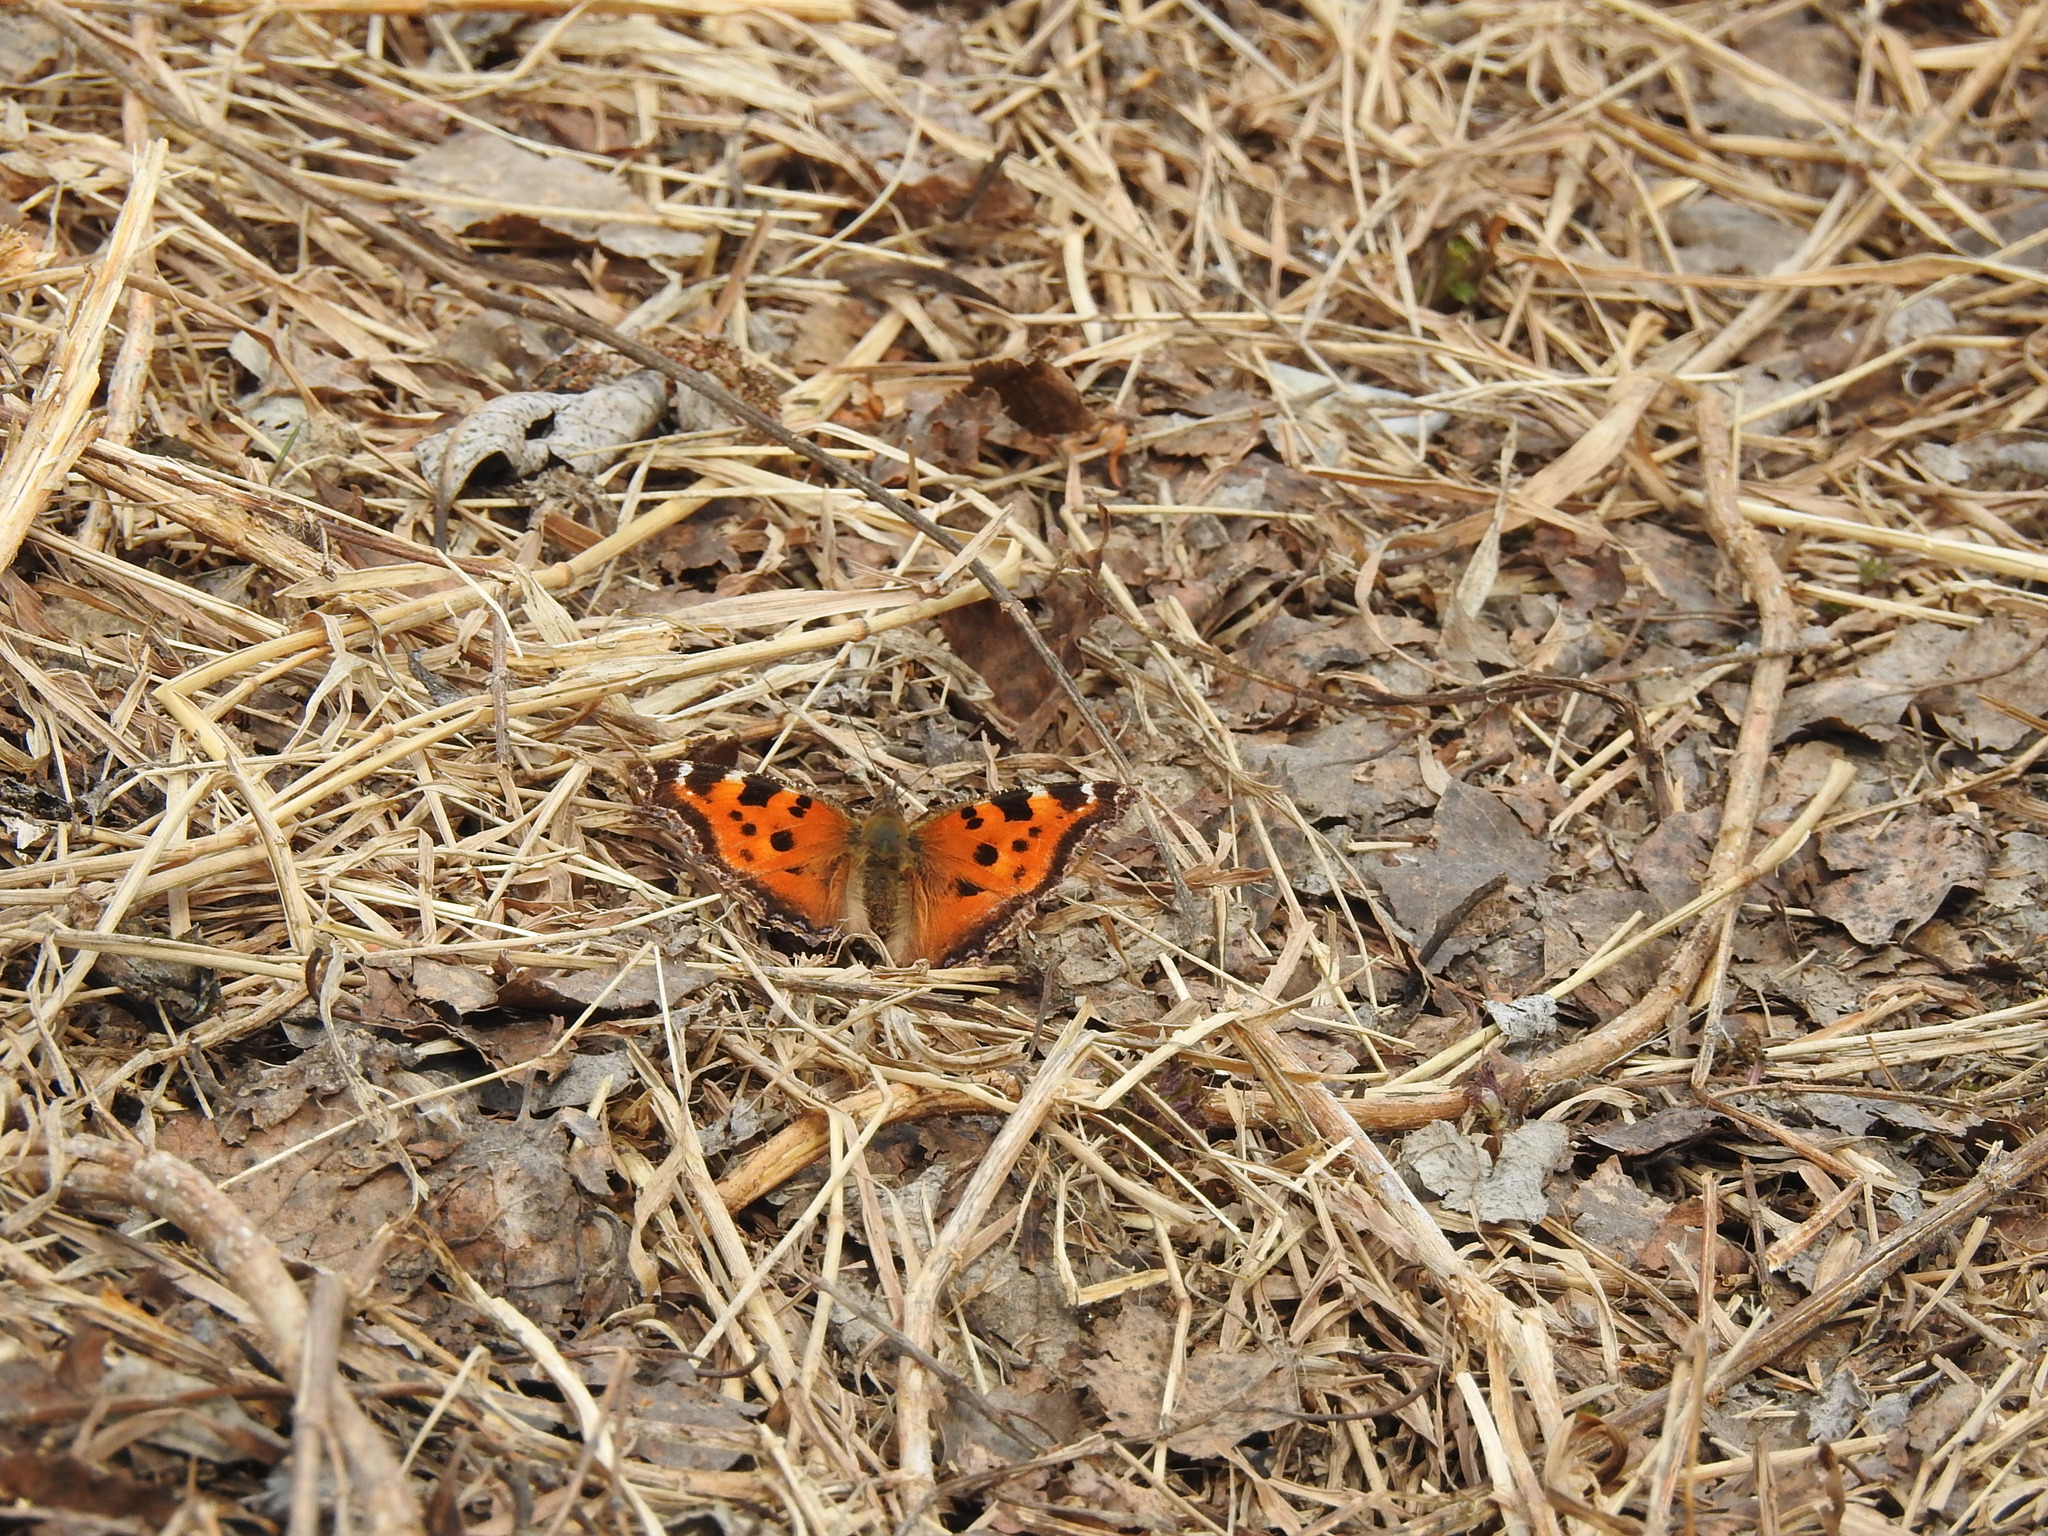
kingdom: Animalia
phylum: Arthropoda
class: Insecta
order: Lepidoptera
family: Nymphalidae
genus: Nymphalis
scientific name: Nymphalis xanthomelas
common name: Scarce tortoiseshell
